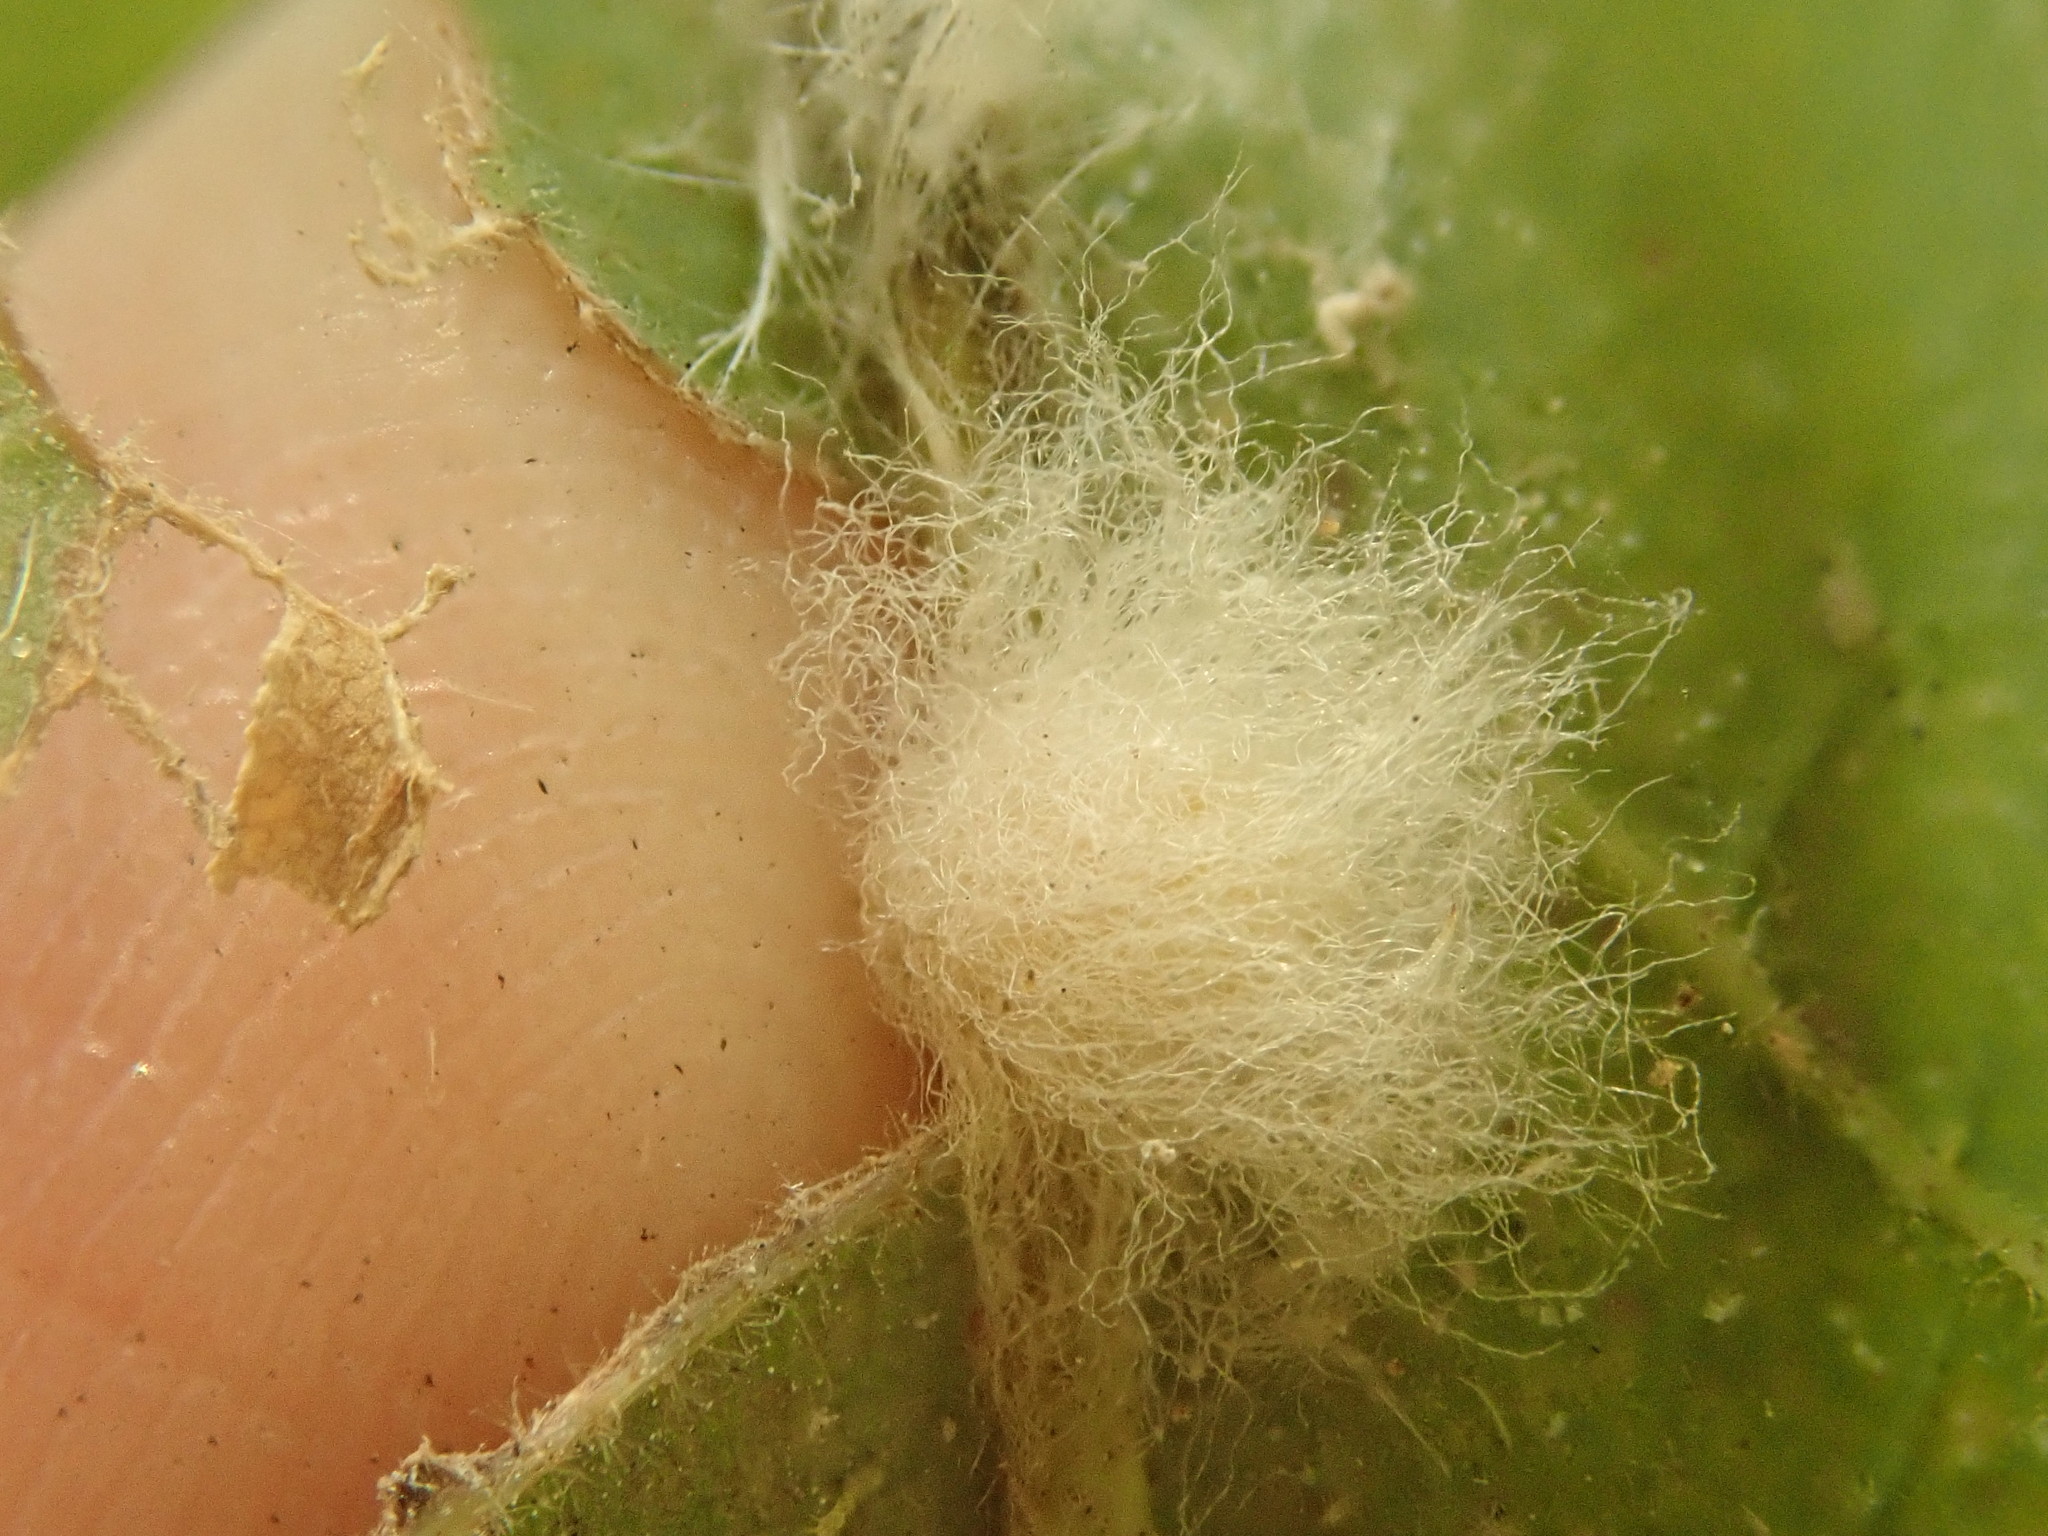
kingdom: Animalia
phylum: Arthropoda
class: Insecta
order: Hymenoptera
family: Cynipidae
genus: Andricus
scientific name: Andricus Druon ignotum
